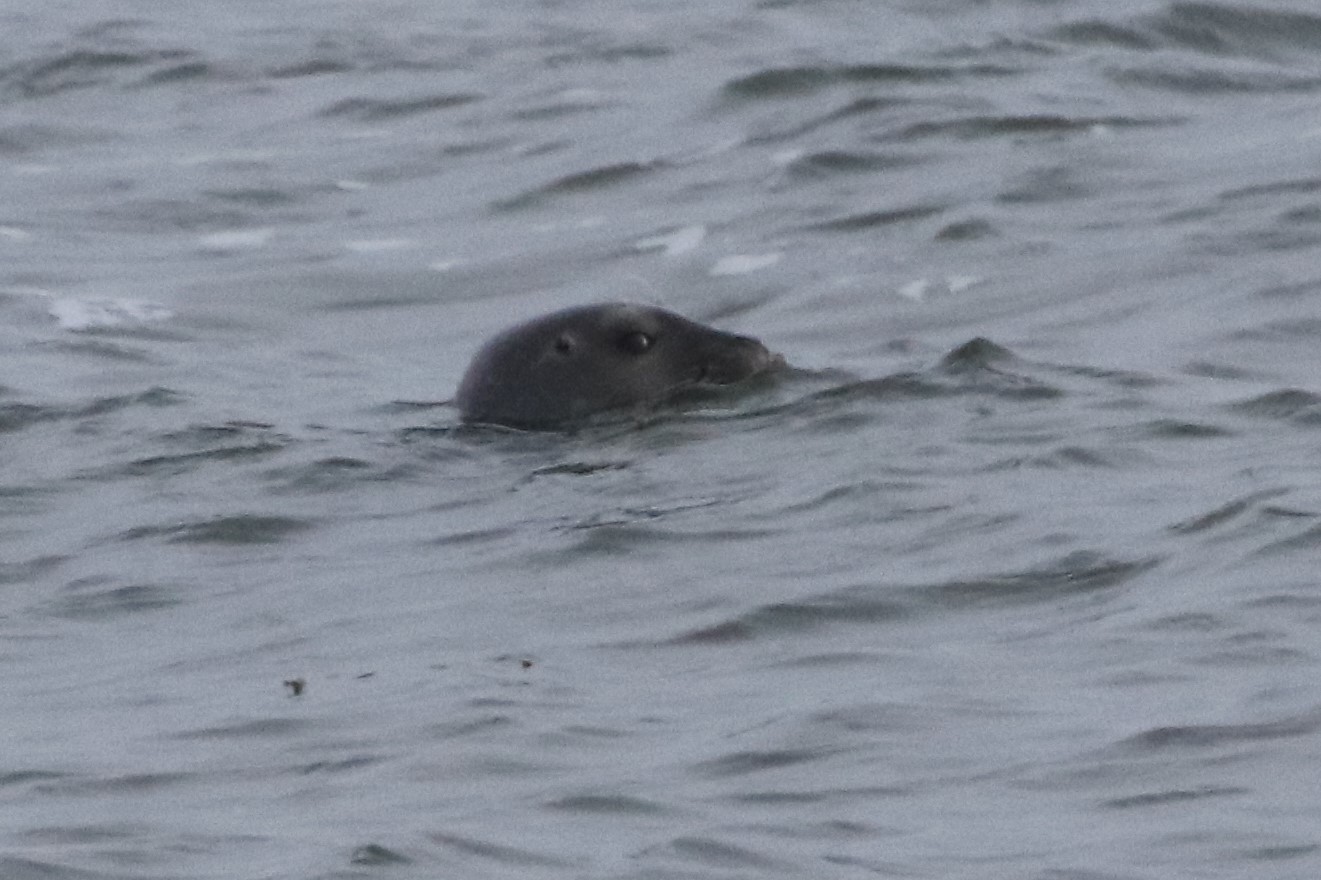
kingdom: Animalia
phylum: Chordata
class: Mammalia
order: Carnivora
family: Phocidae
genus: Phoca
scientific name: Phoca vitulina
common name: Harbor seal
